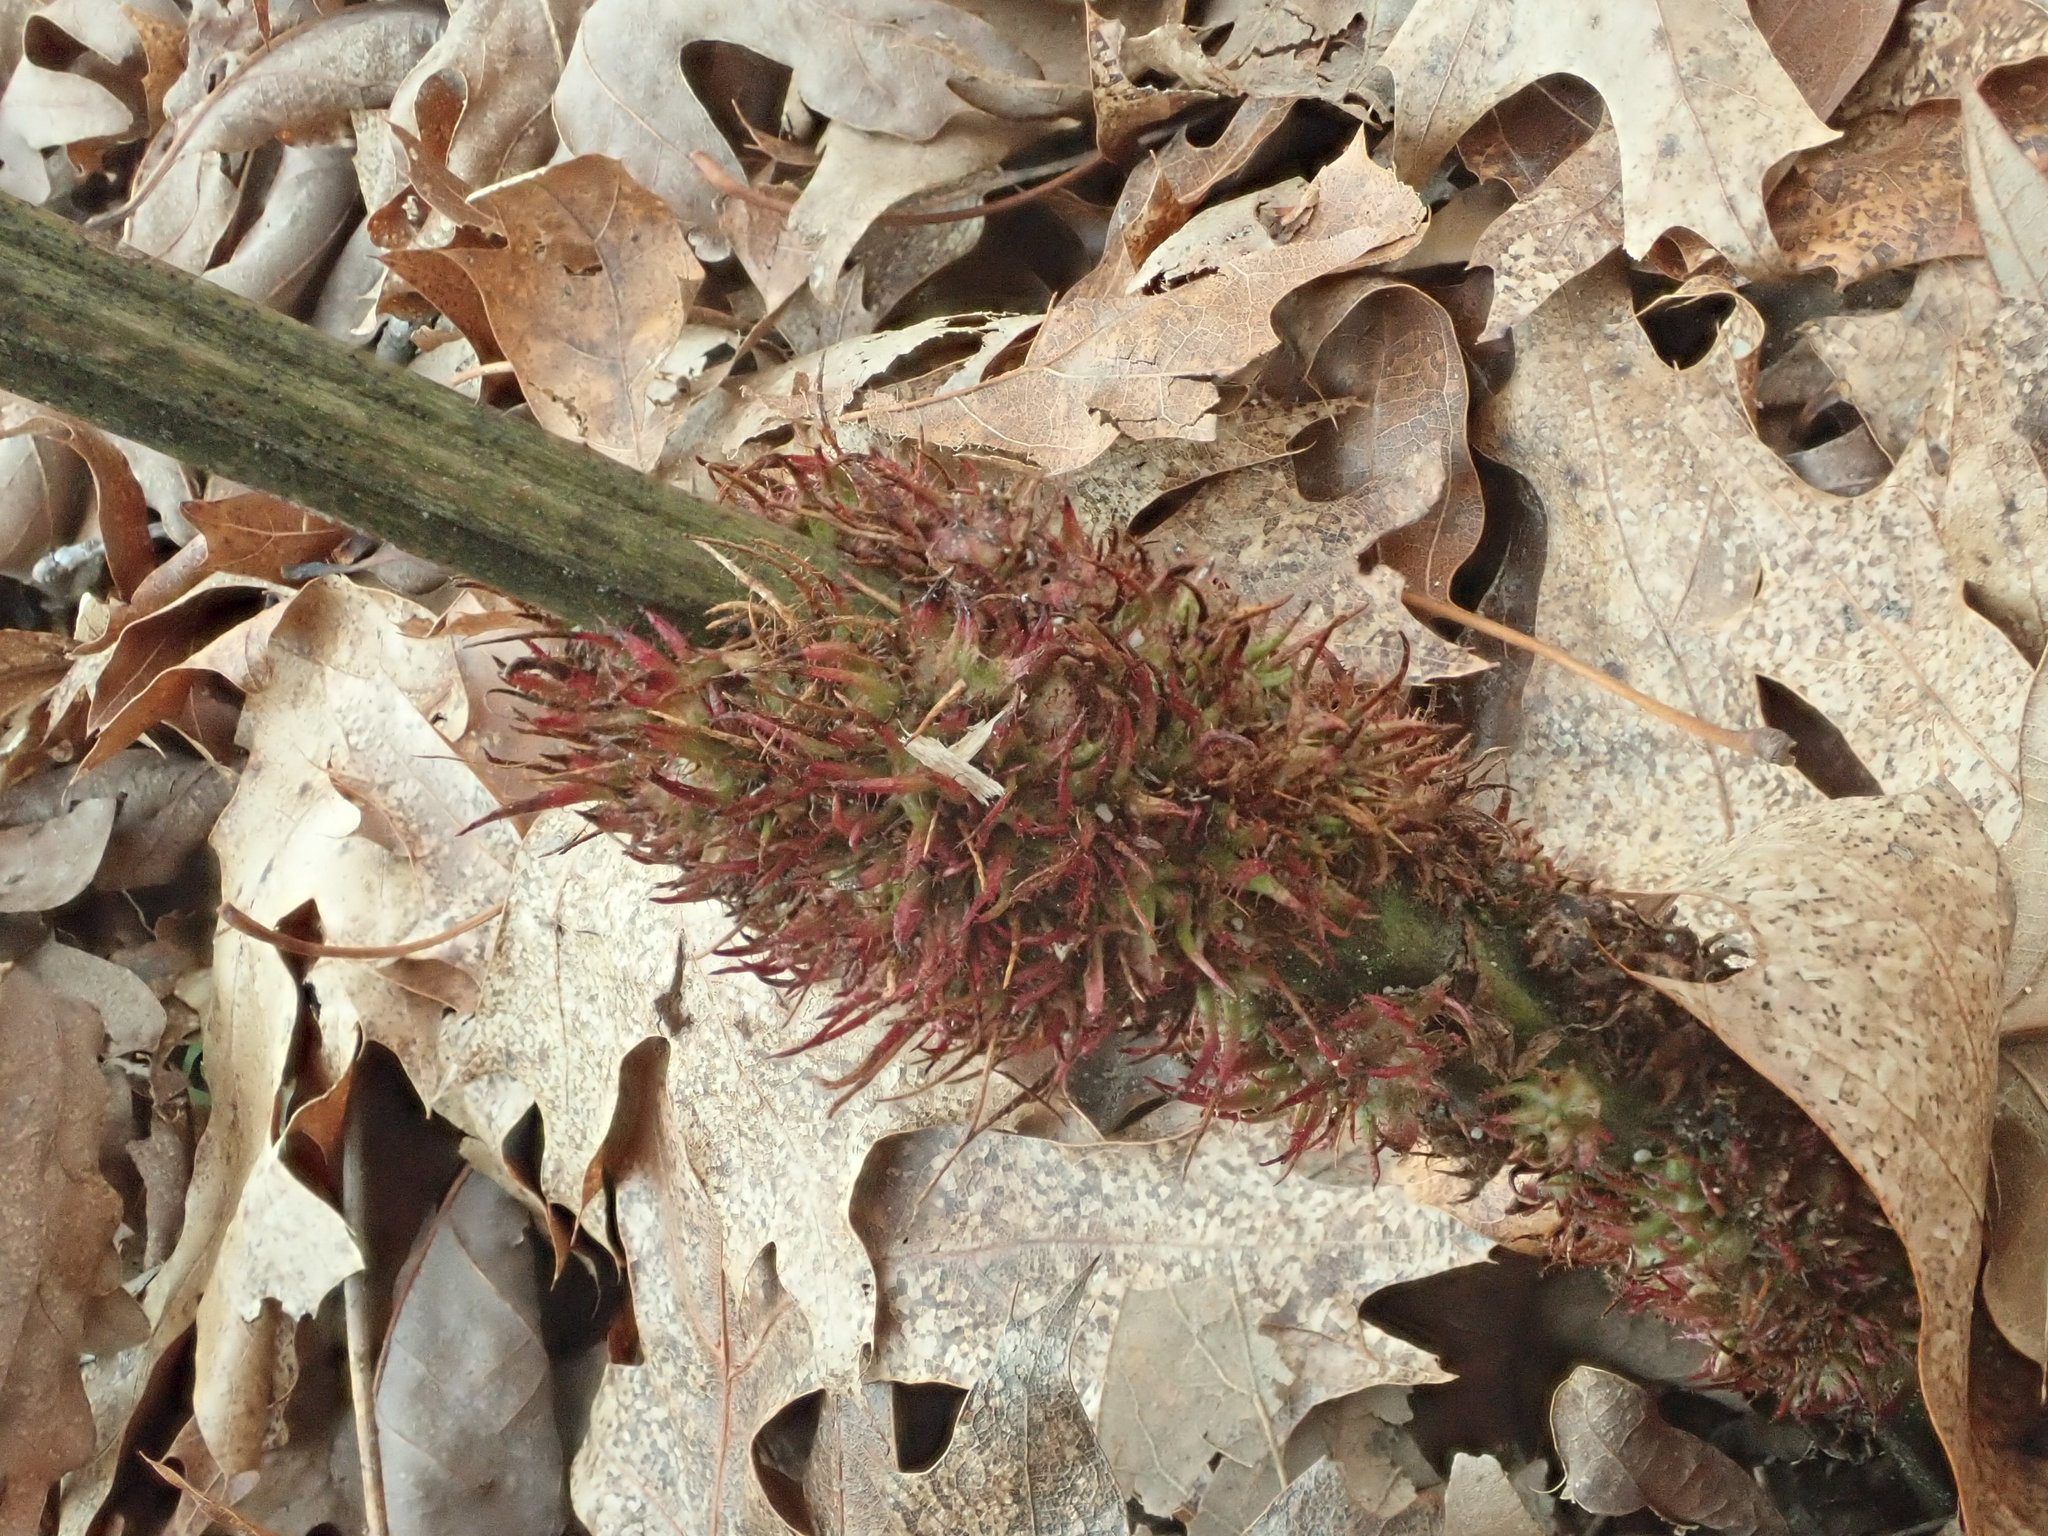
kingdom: Animalia
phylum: Arthropoda
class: Insecta
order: Hymenoptera
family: Cynipidae
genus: Diastrophus
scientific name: Diastrophus
